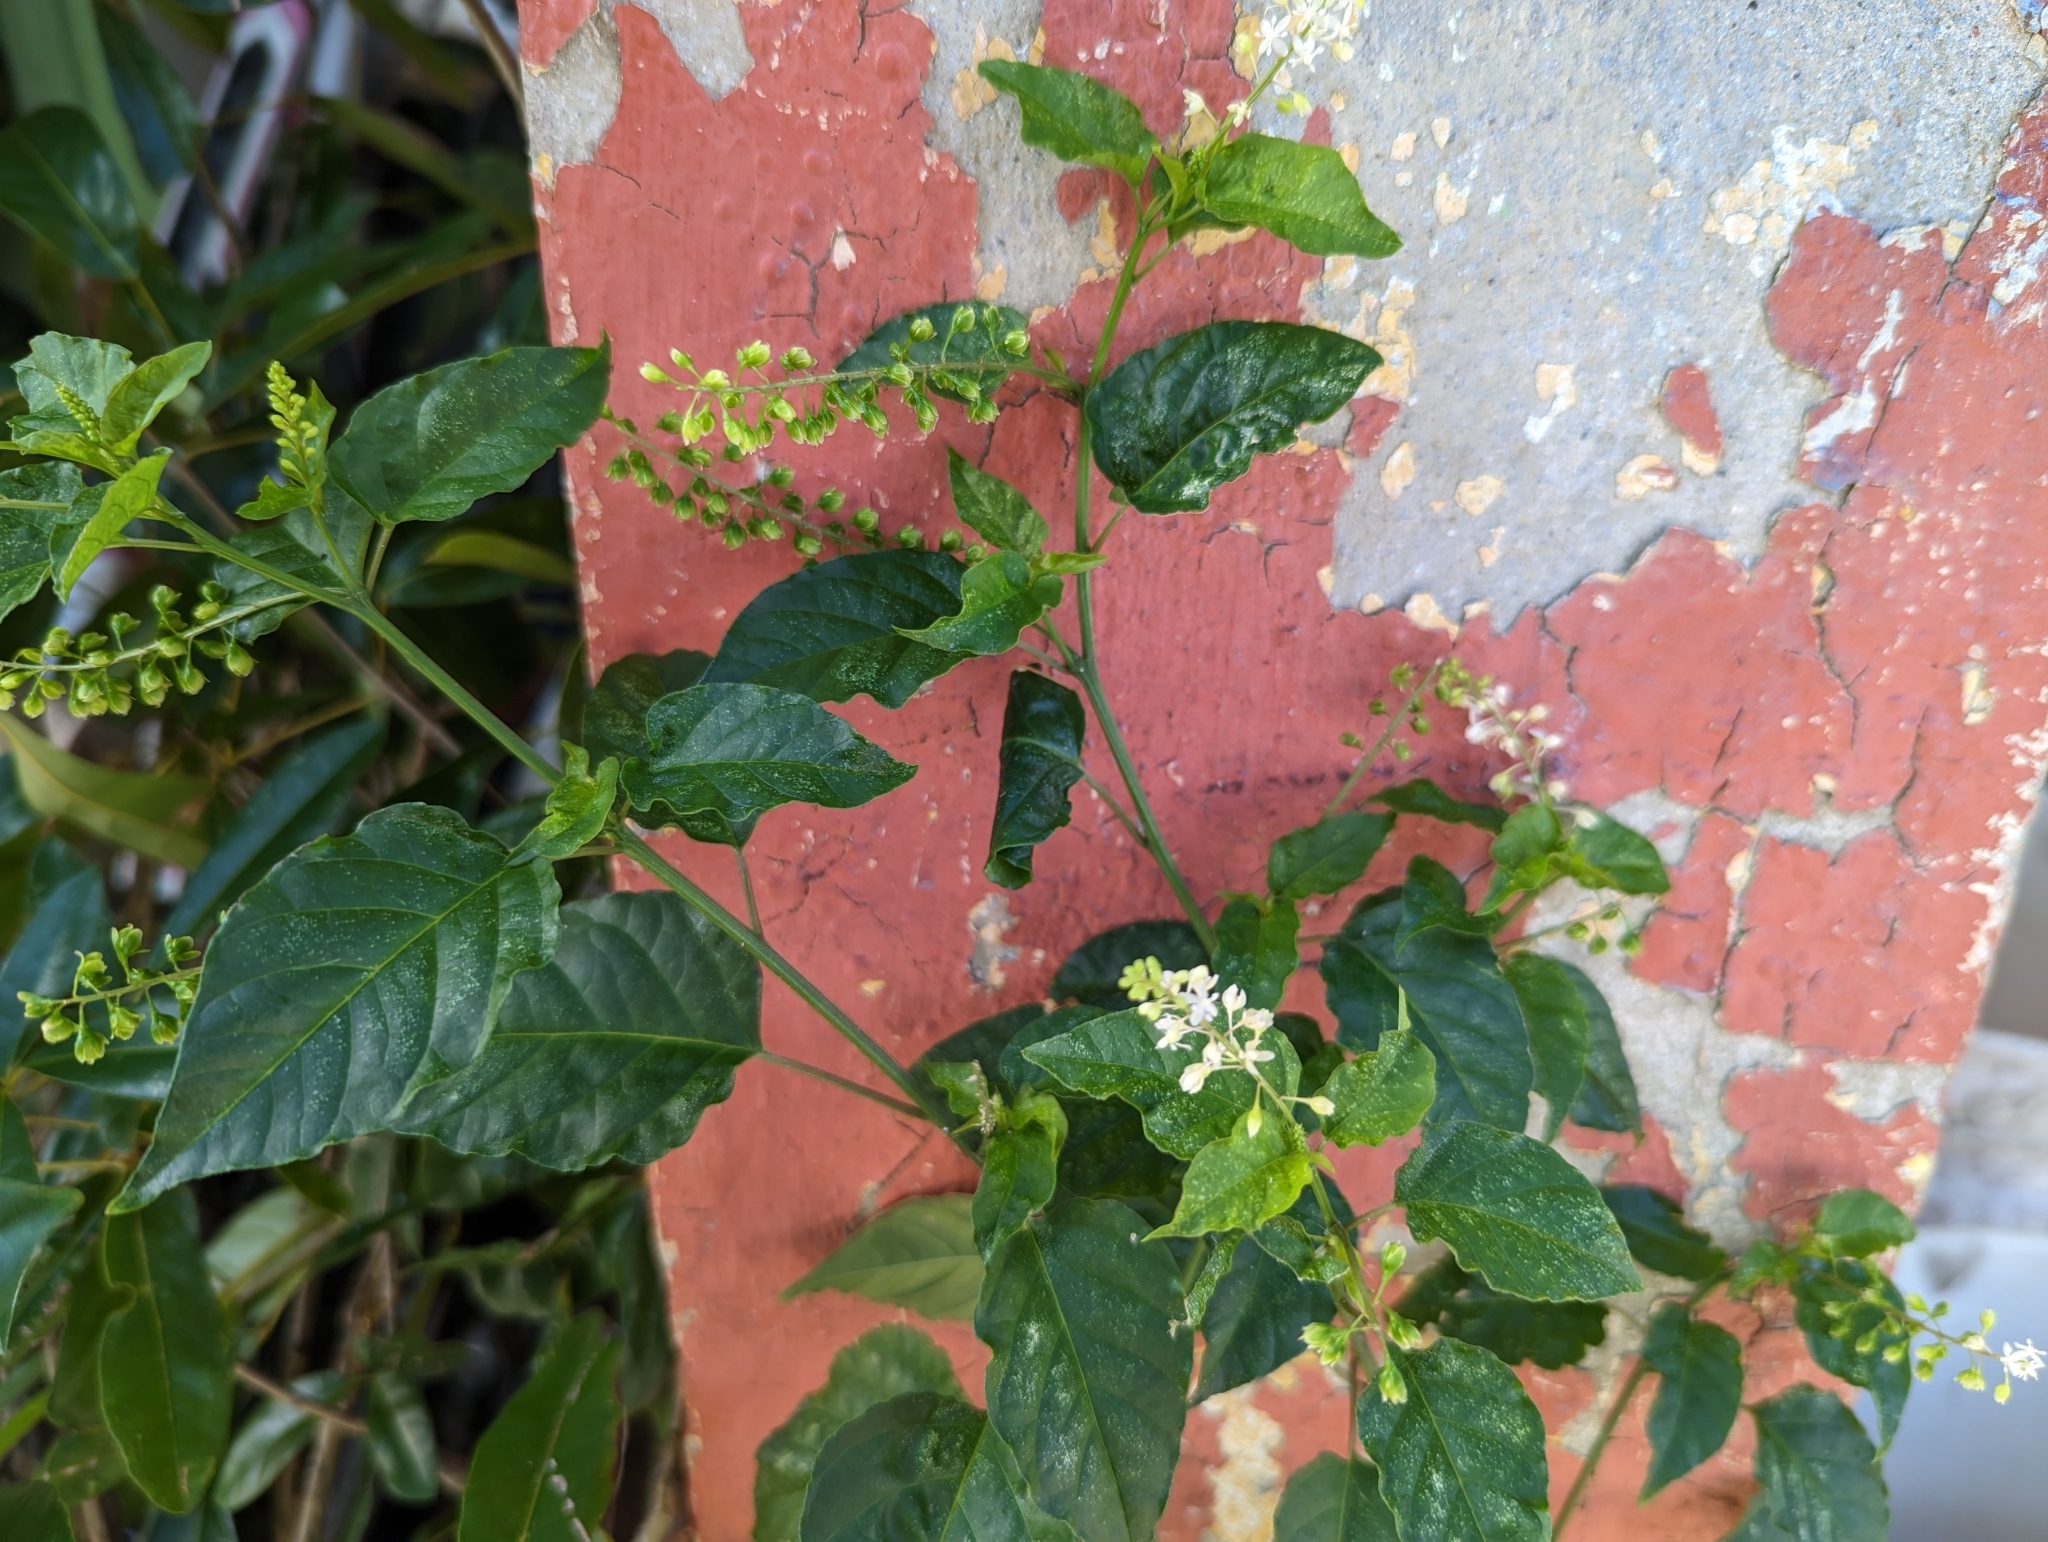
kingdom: Plantae
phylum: Tracheophyta
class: Magnoliopsida
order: Caryophyllales
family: Phytolaccaceae
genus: Rivina
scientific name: Rivina humilis
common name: Rougeplant
